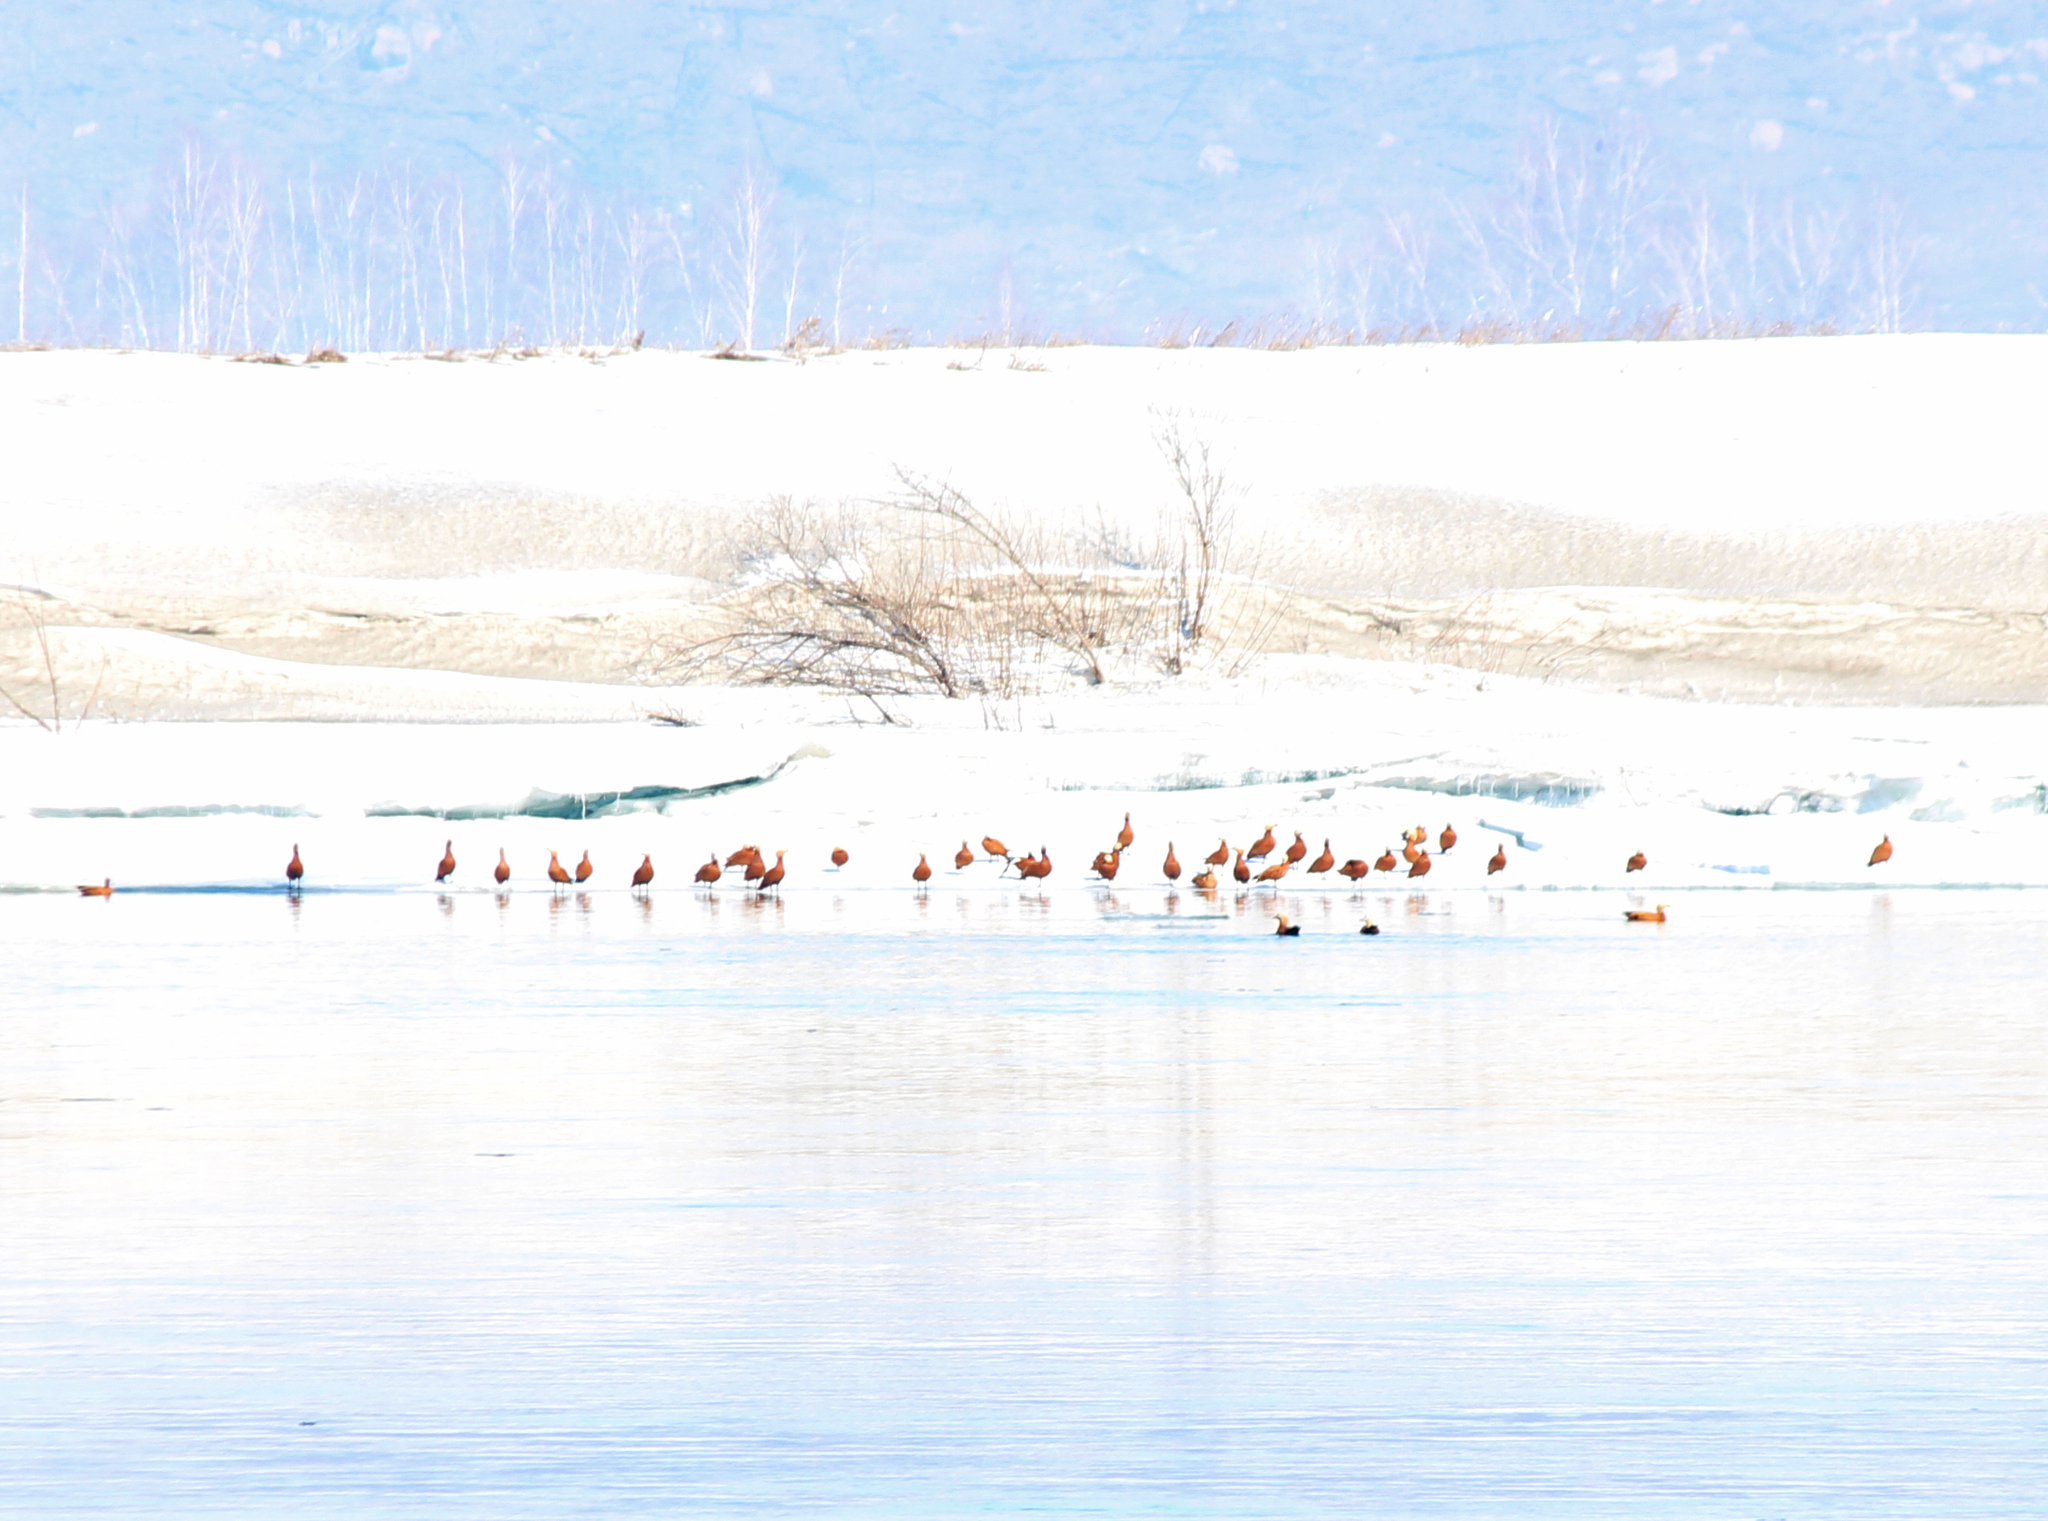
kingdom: Animalia
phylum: Chordata
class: Aves
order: Anseriformes
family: Anatidae
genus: Tadorna
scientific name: Tadorna ferruginea
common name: Ruddy shelduck
